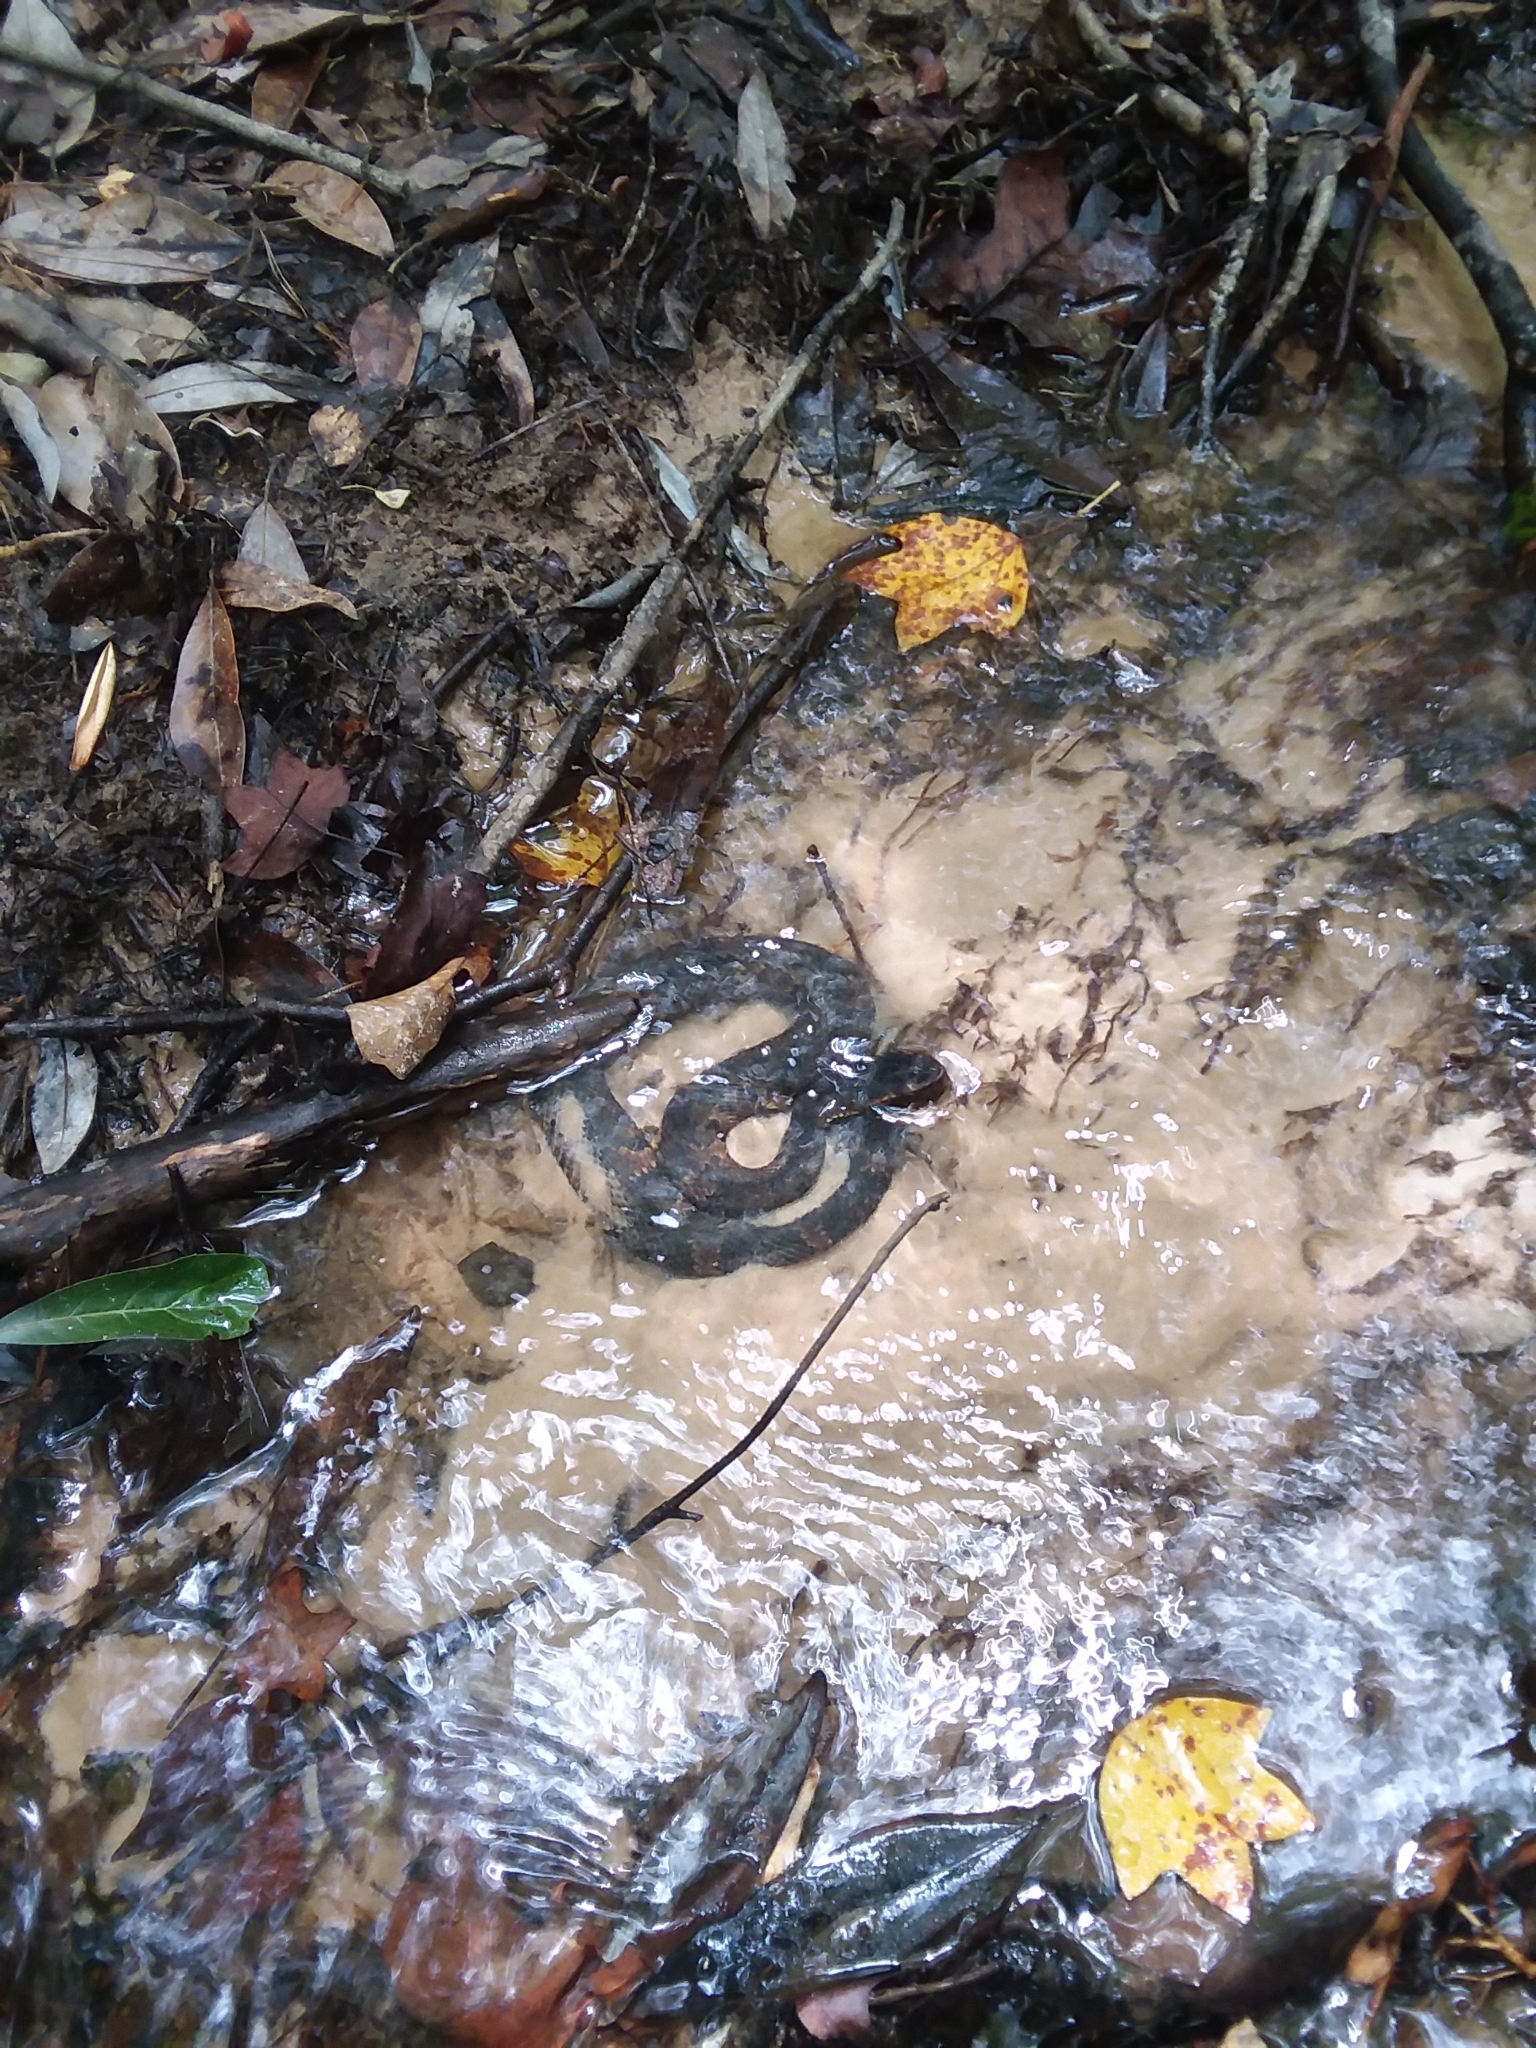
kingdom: Animalia
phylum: Chordata
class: Squamata
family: Viperidae
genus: Agkistrodon
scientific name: Agkistrodon piscivorus
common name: Cottonmouth
